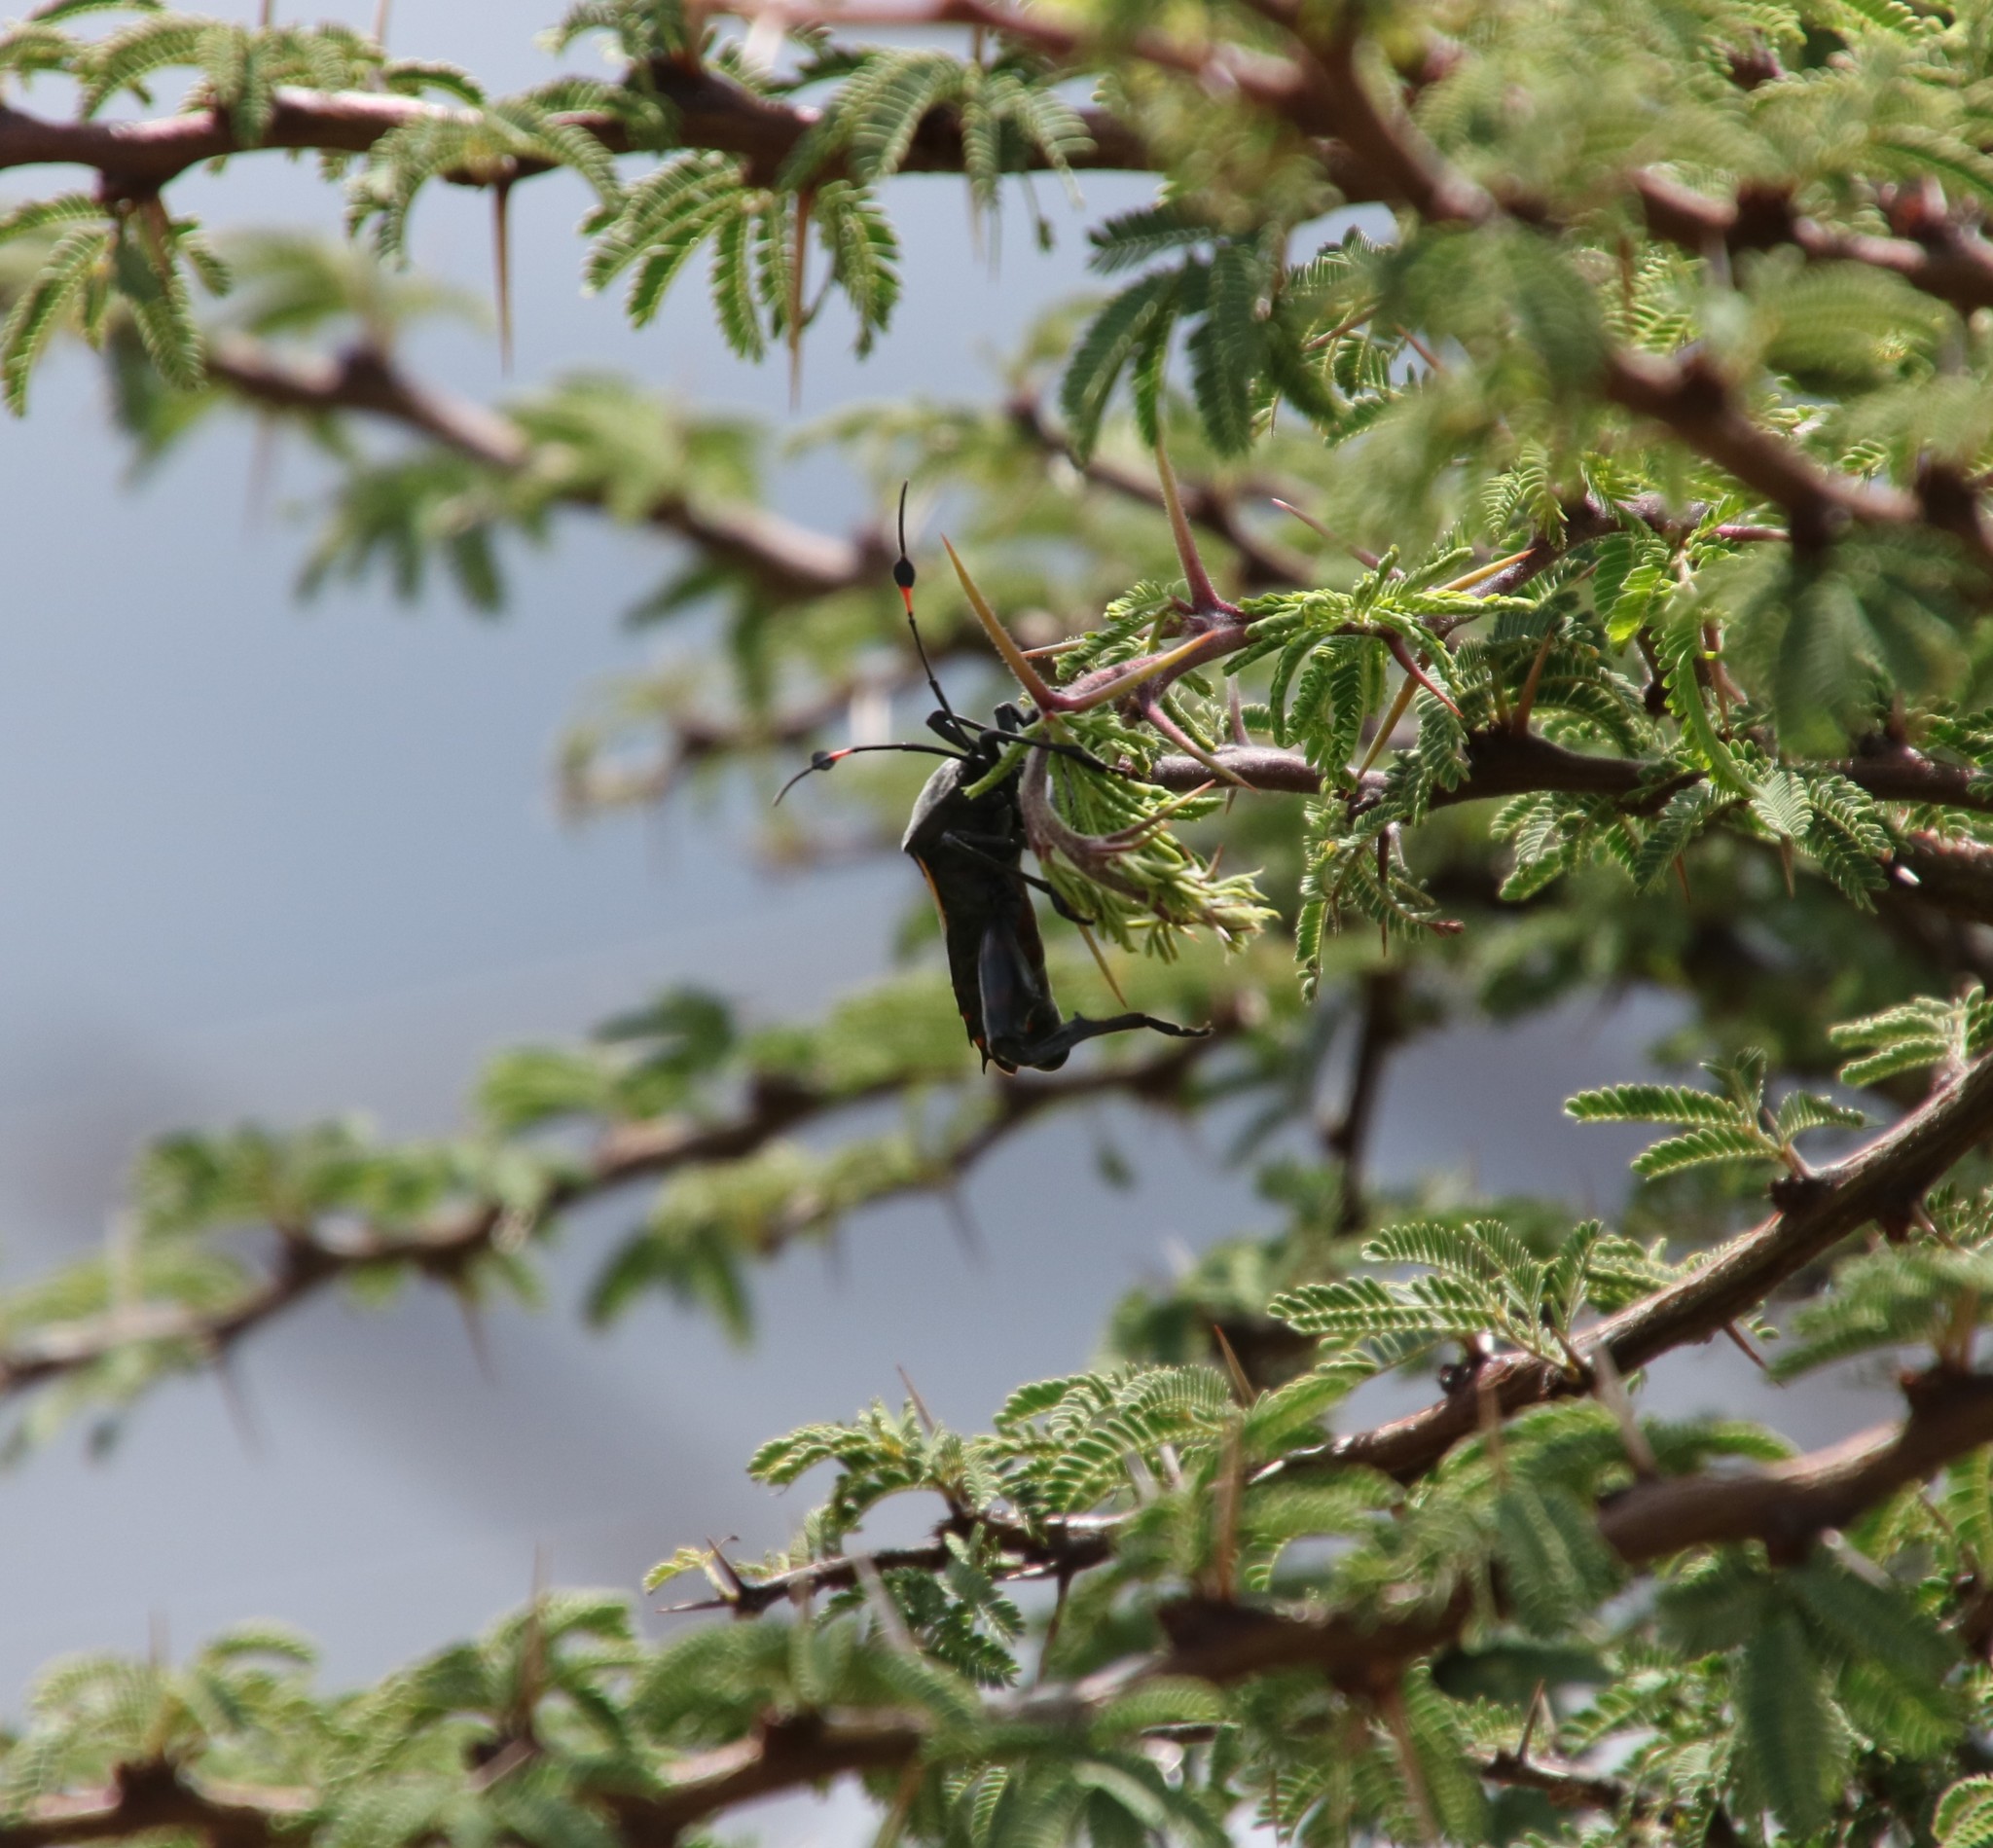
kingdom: Animalia
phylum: Arthropoda
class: Insecta
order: Hemiptera
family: Coreidae
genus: Thasus
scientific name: Thasus
